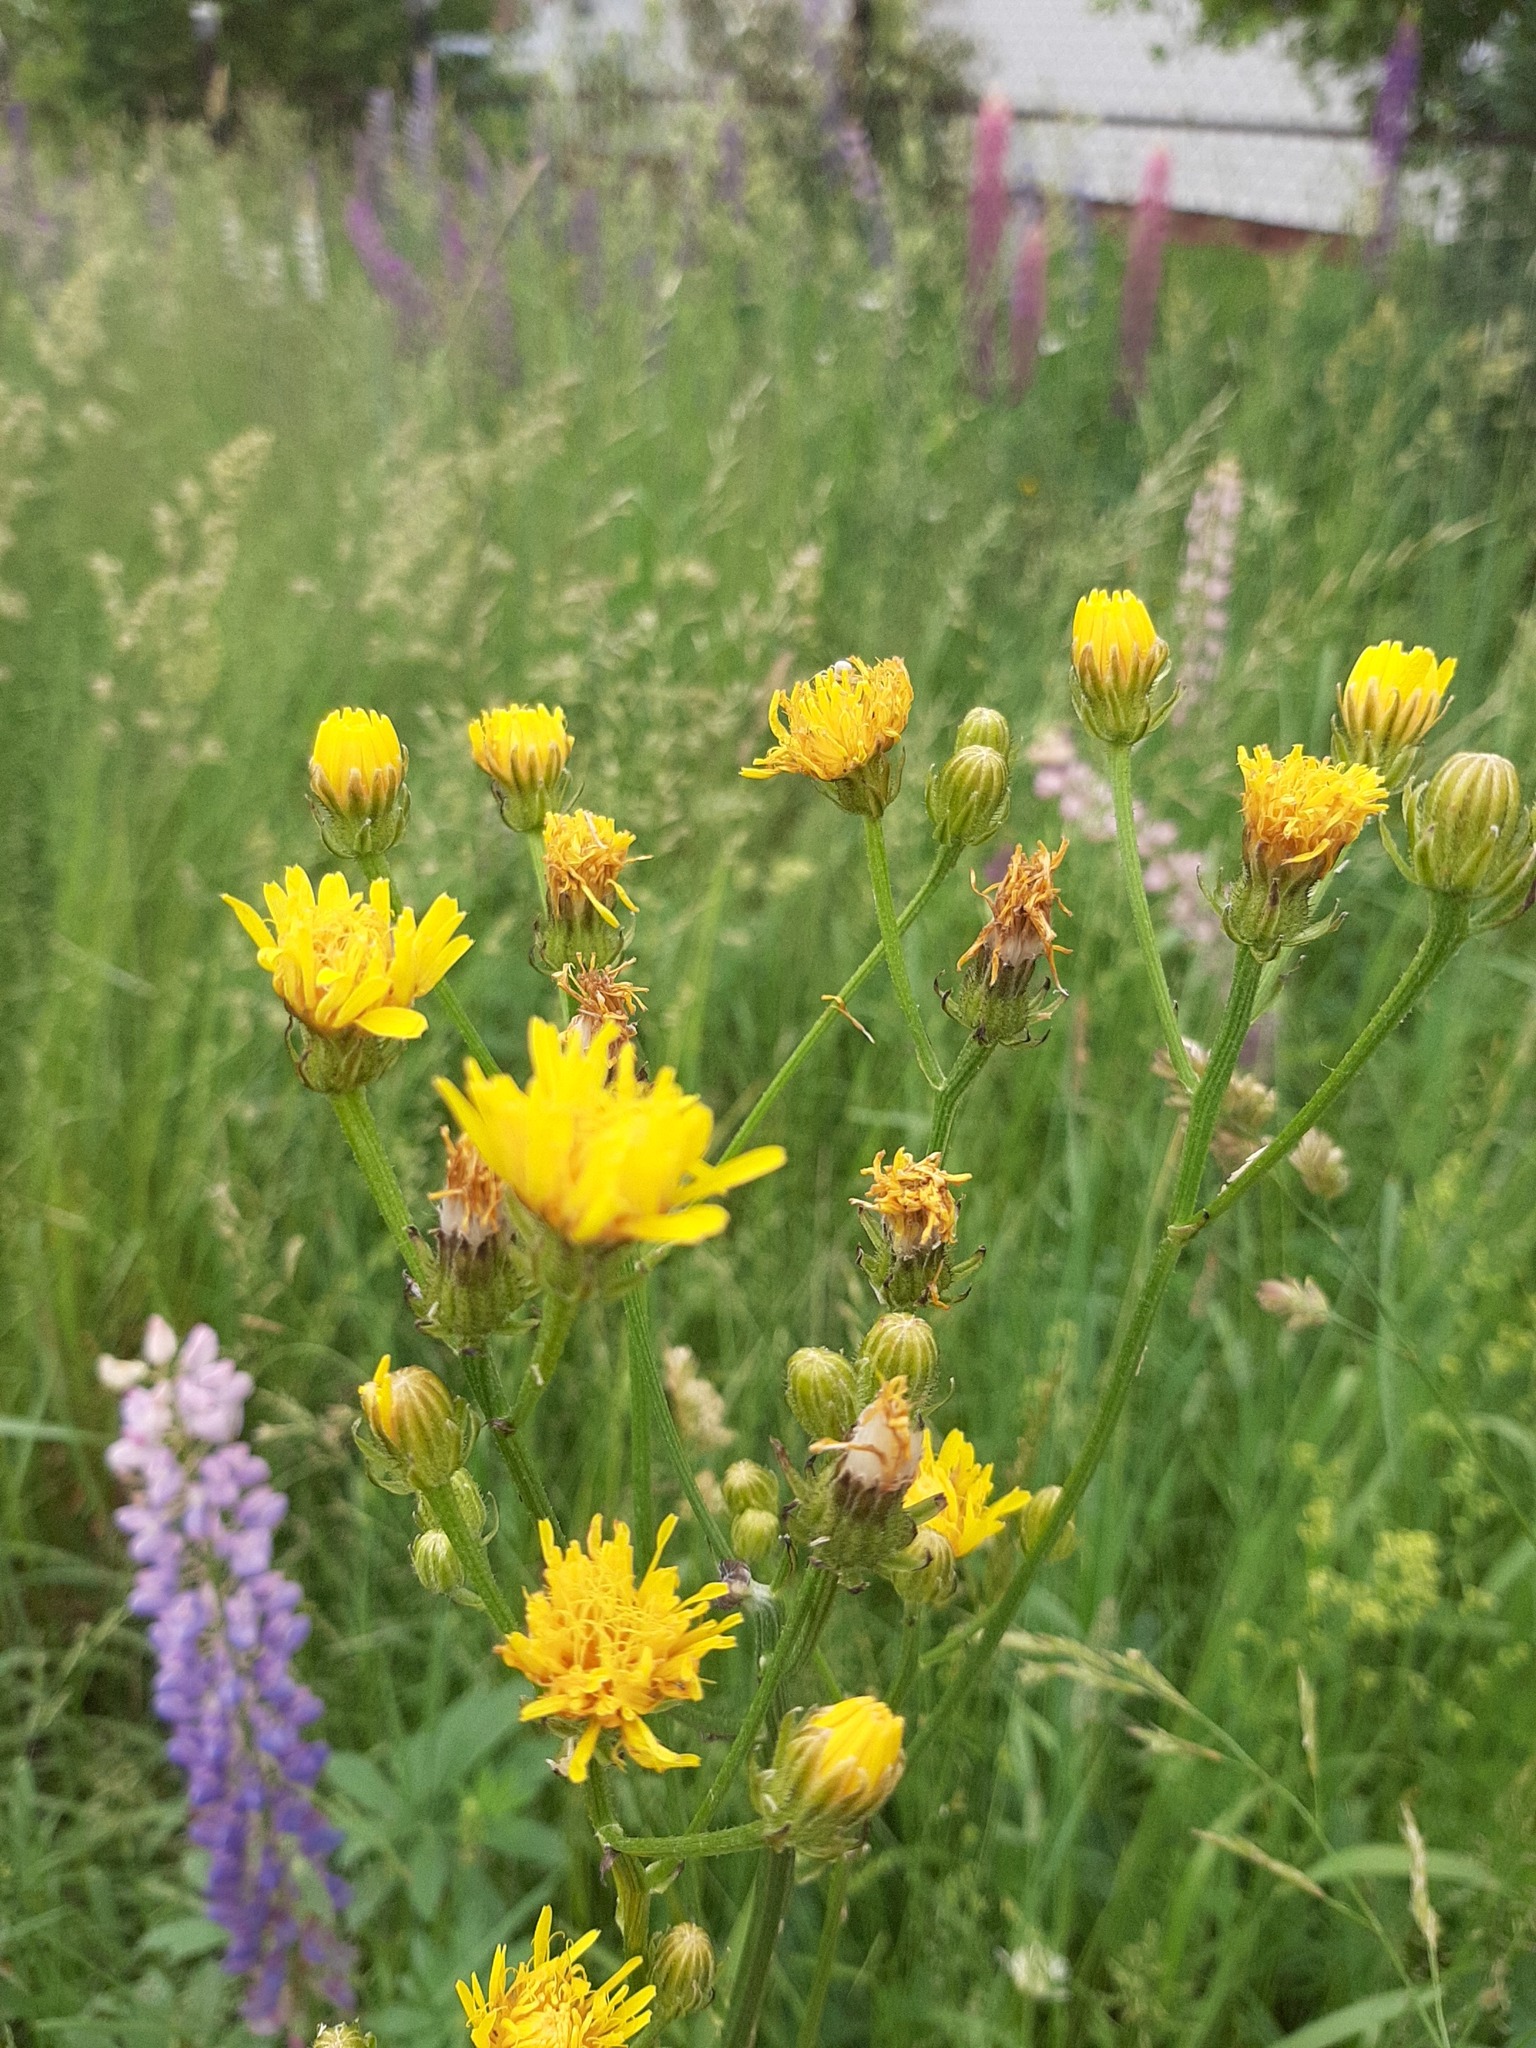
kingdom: Plantae
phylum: Tracheophyta
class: Magnoliopsida
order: Asterales
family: Asteraceae
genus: Crepis
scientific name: Crepis biennis
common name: Rough hawk's-beard
